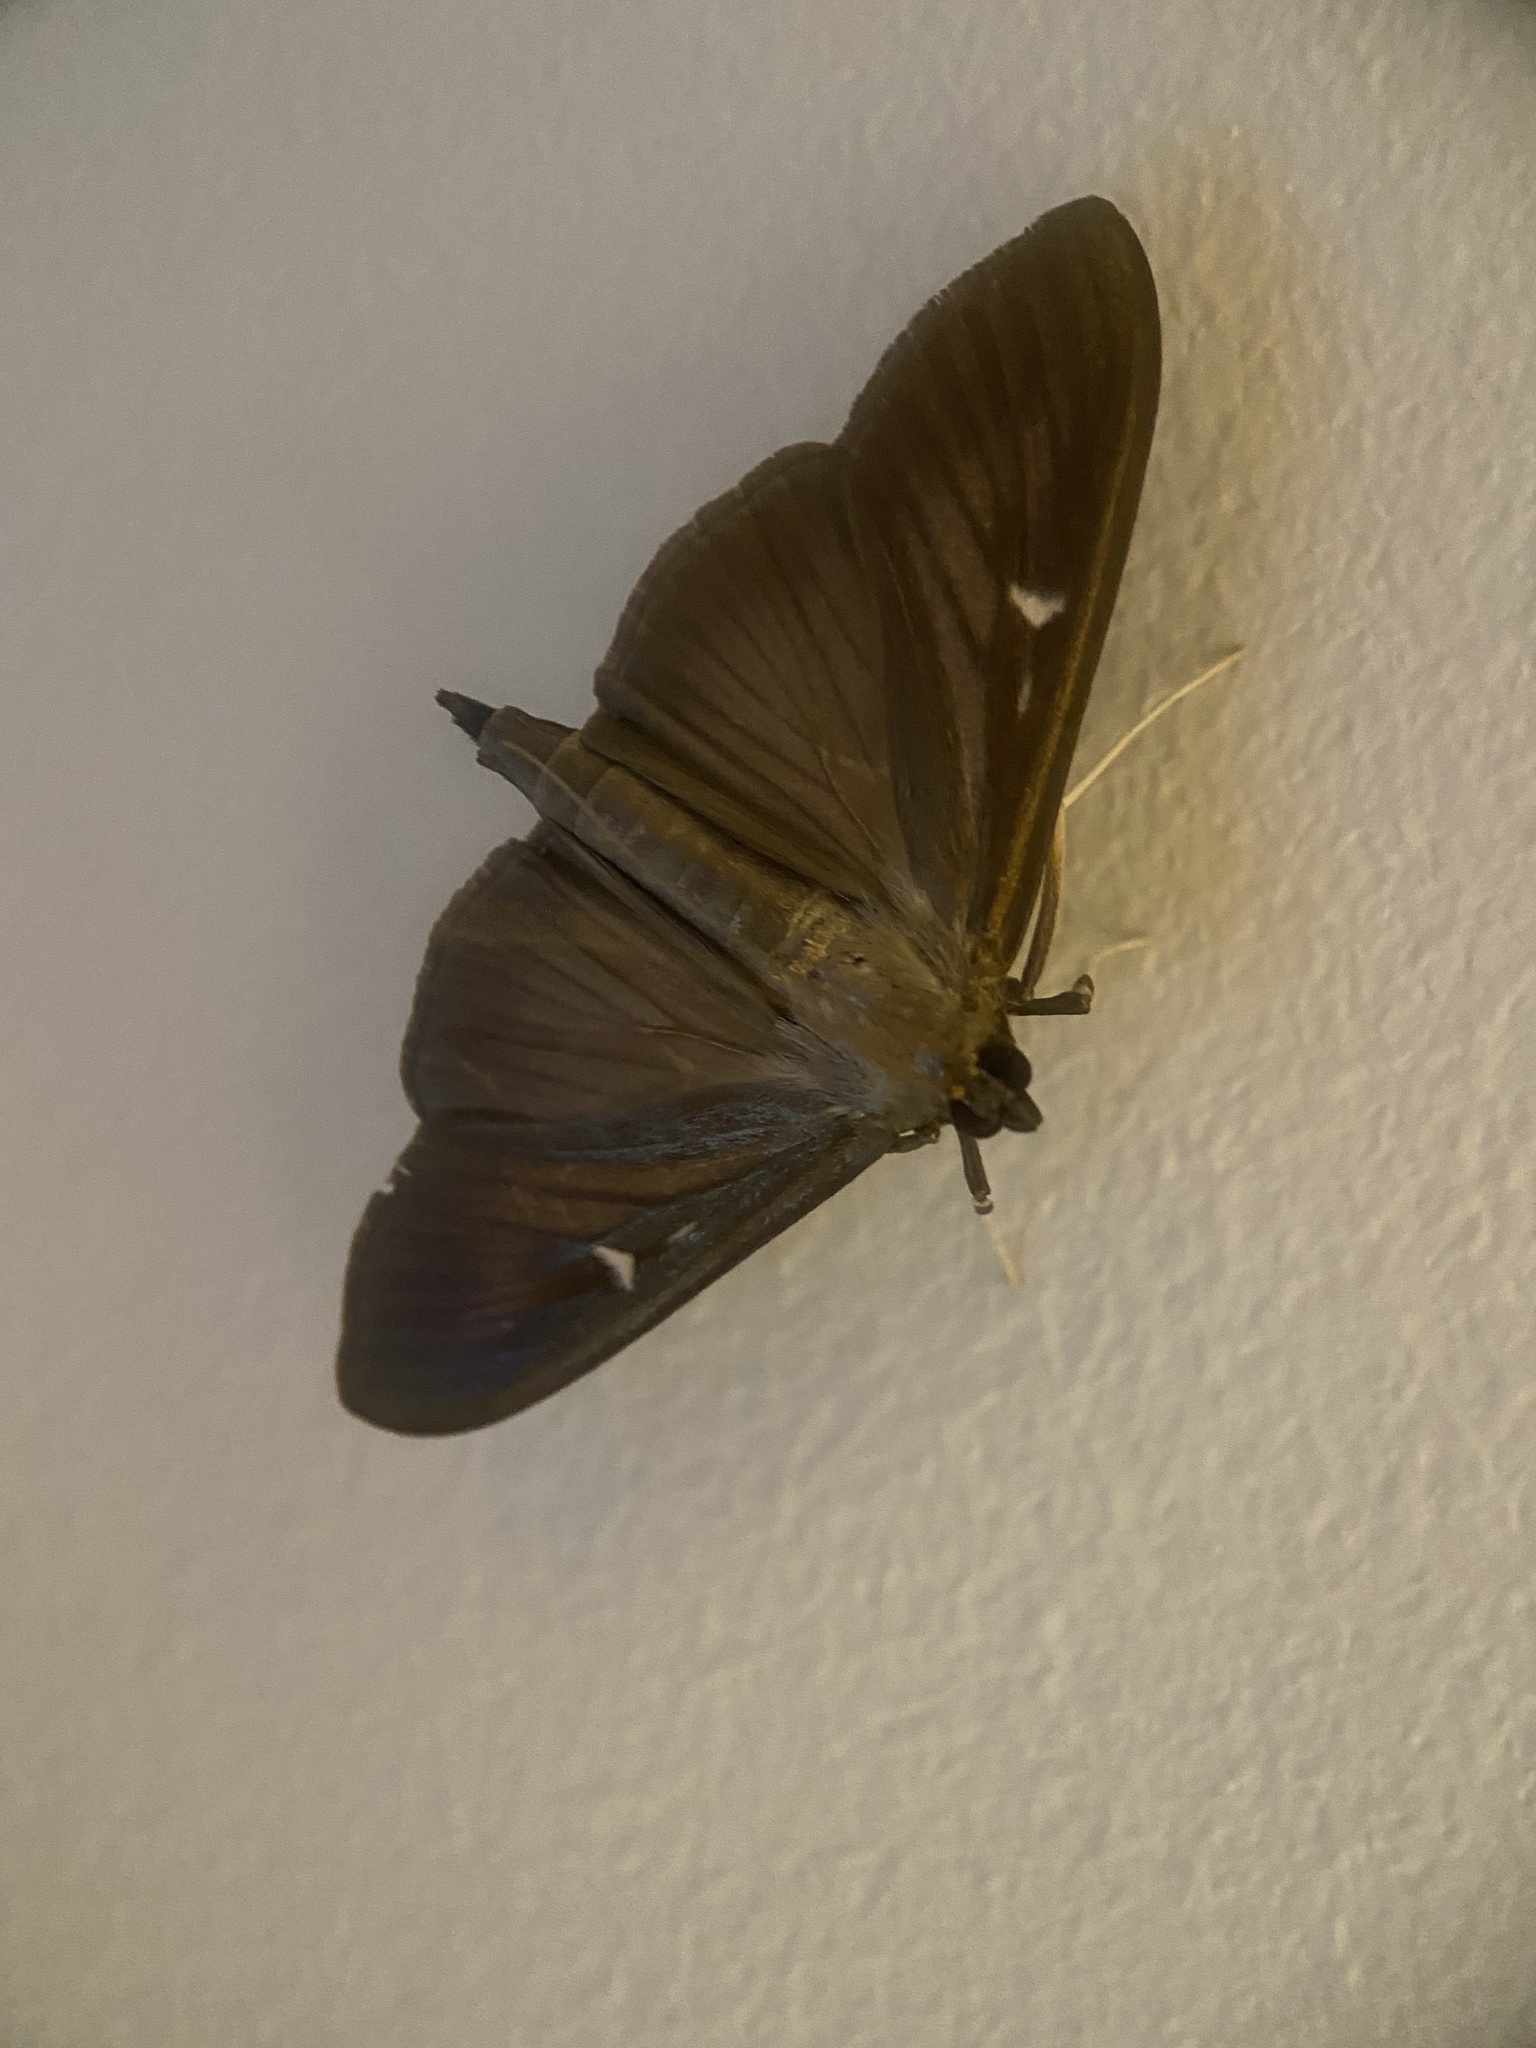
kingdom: Animalia
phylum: Arthropoda
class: Insecta
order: Lepidoptera
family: Crambidae
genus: Cydalima
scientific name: Cydalima perspectalis
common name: Box tree moth
